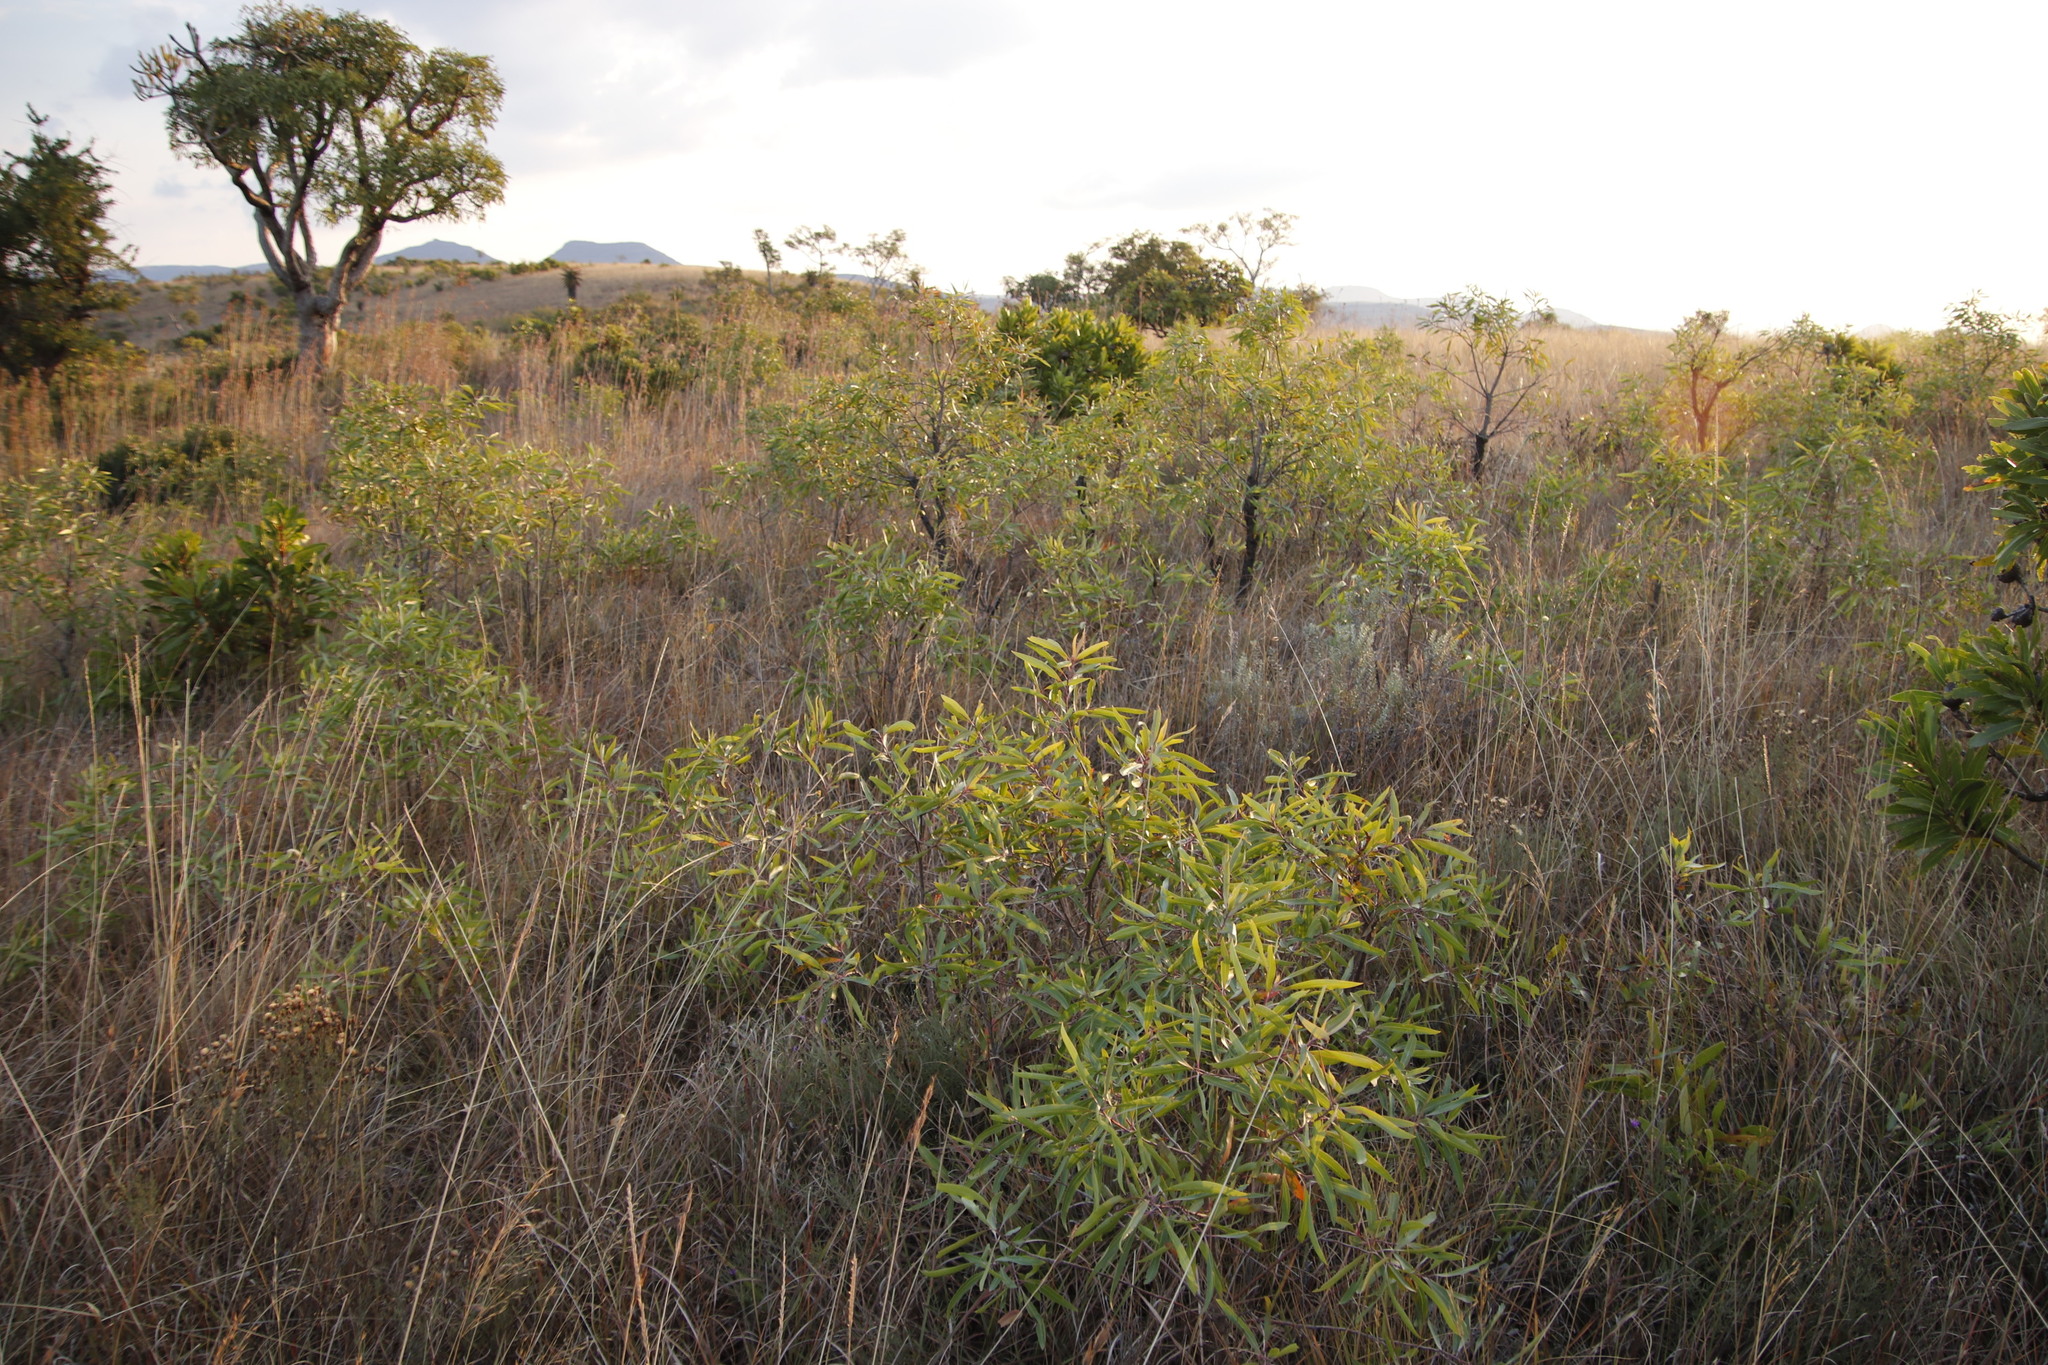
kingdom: Plantae
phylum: Tracheophyta
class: Magnoliopsida
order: Proteales
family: Proteaceae
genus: Faurea
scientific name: Faurea saligna
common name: African bean
